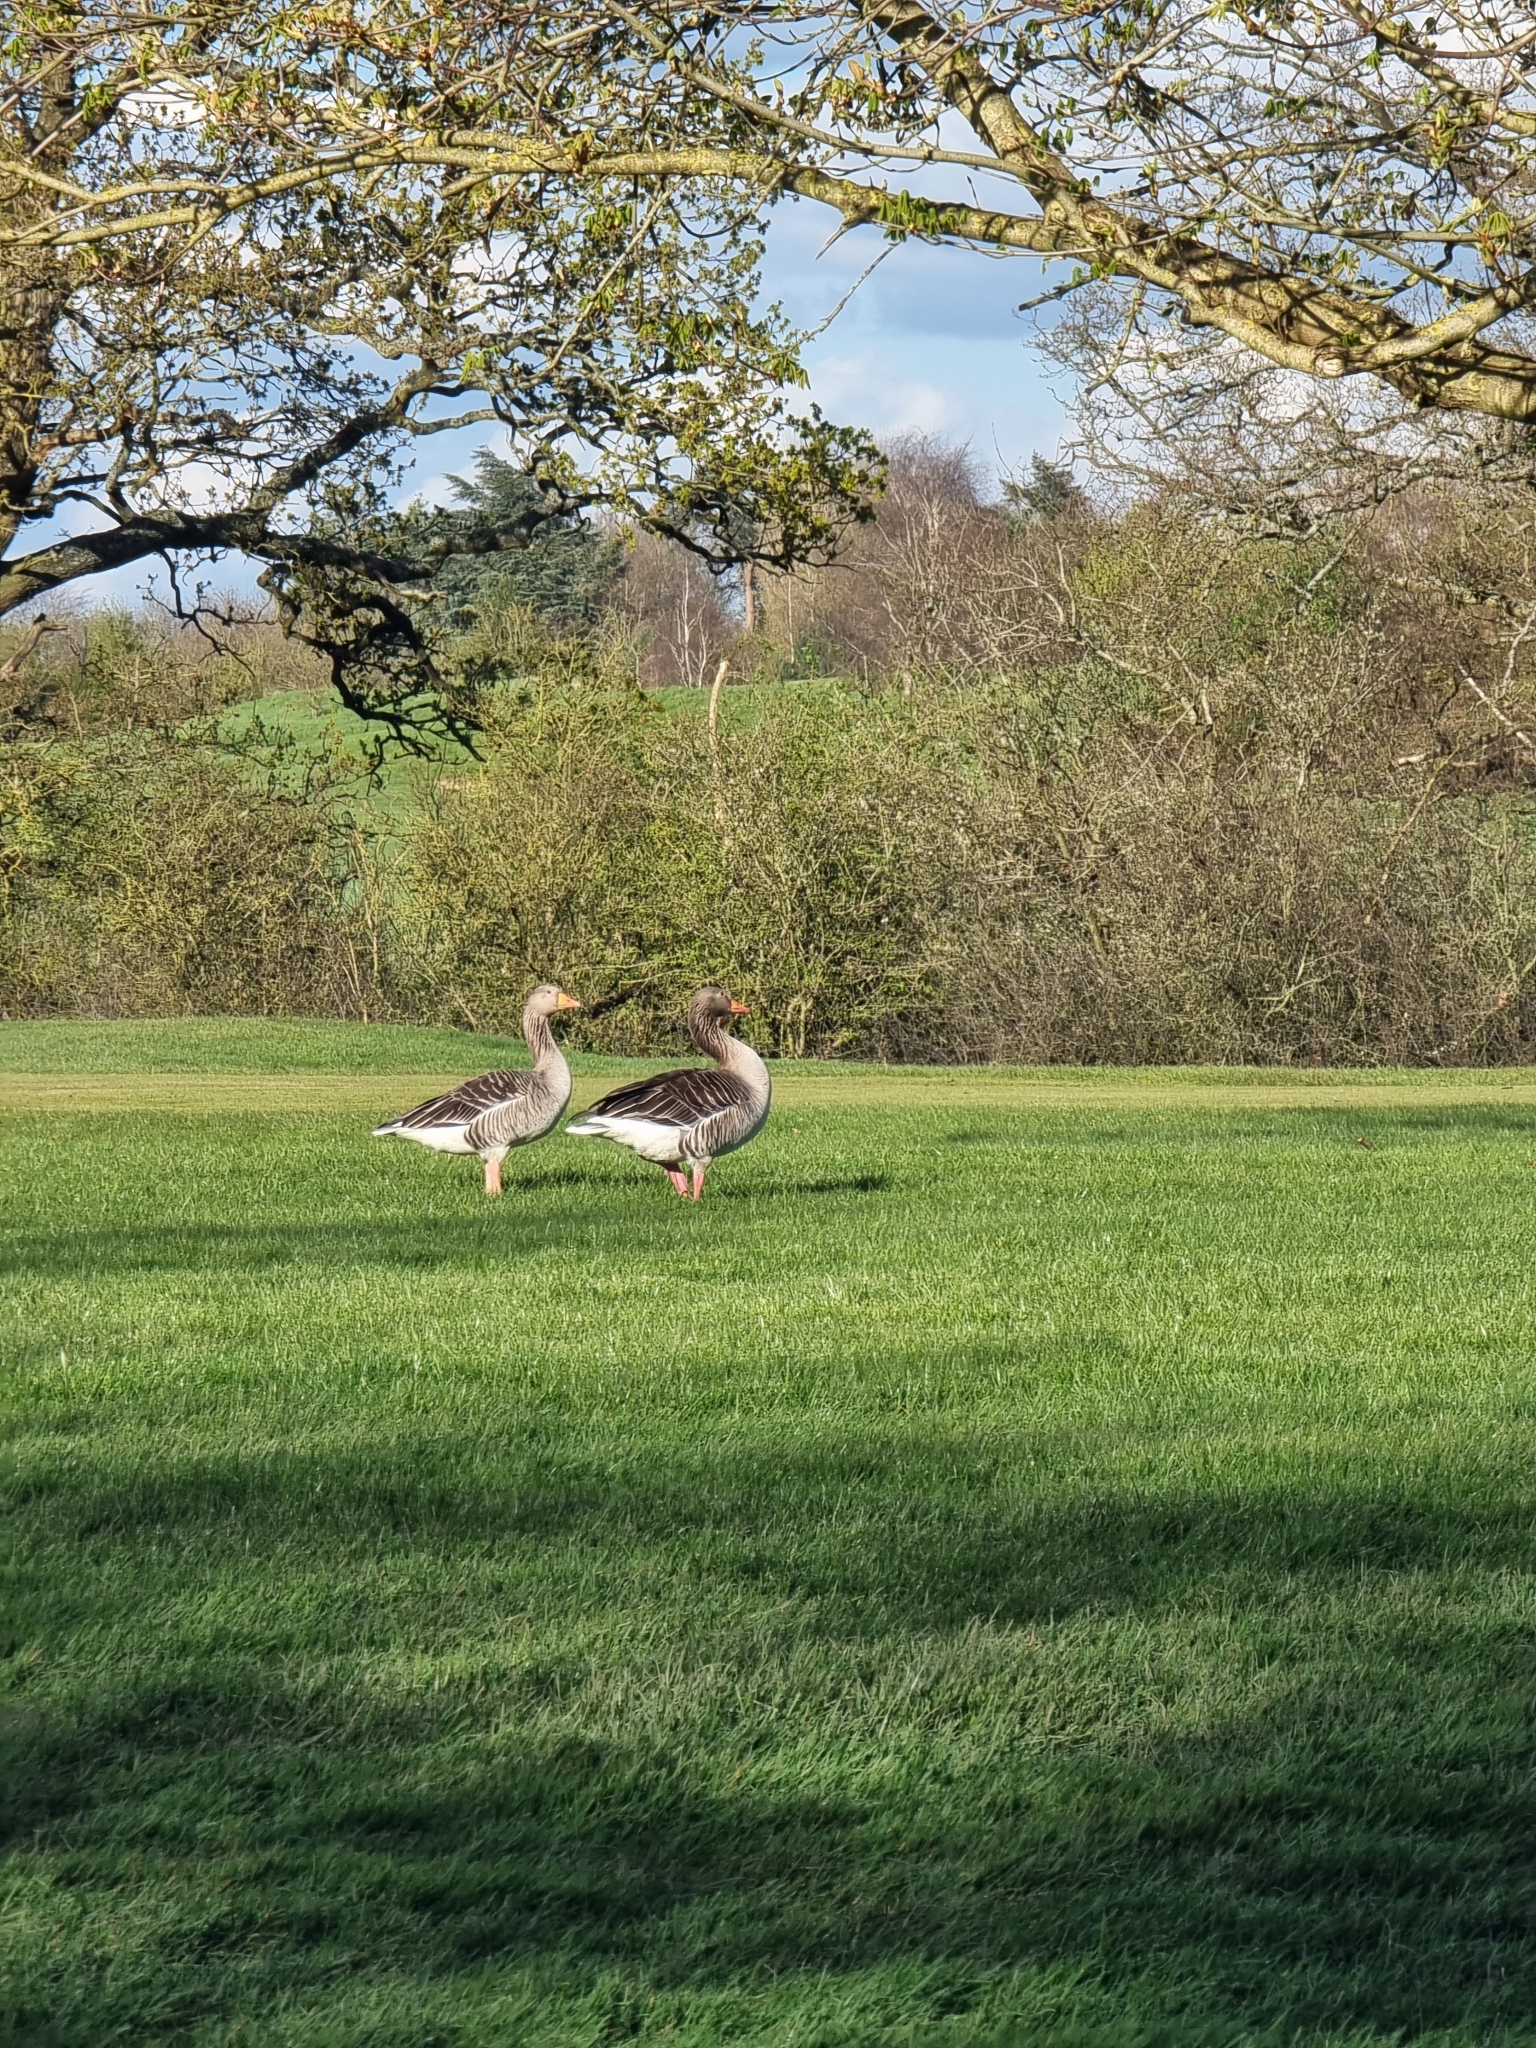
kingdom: Animalia
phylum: Chordata
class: Aves
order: Anseriformes
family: Anatidae
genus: Anser
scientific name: Anser anser
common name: Greylag goose
